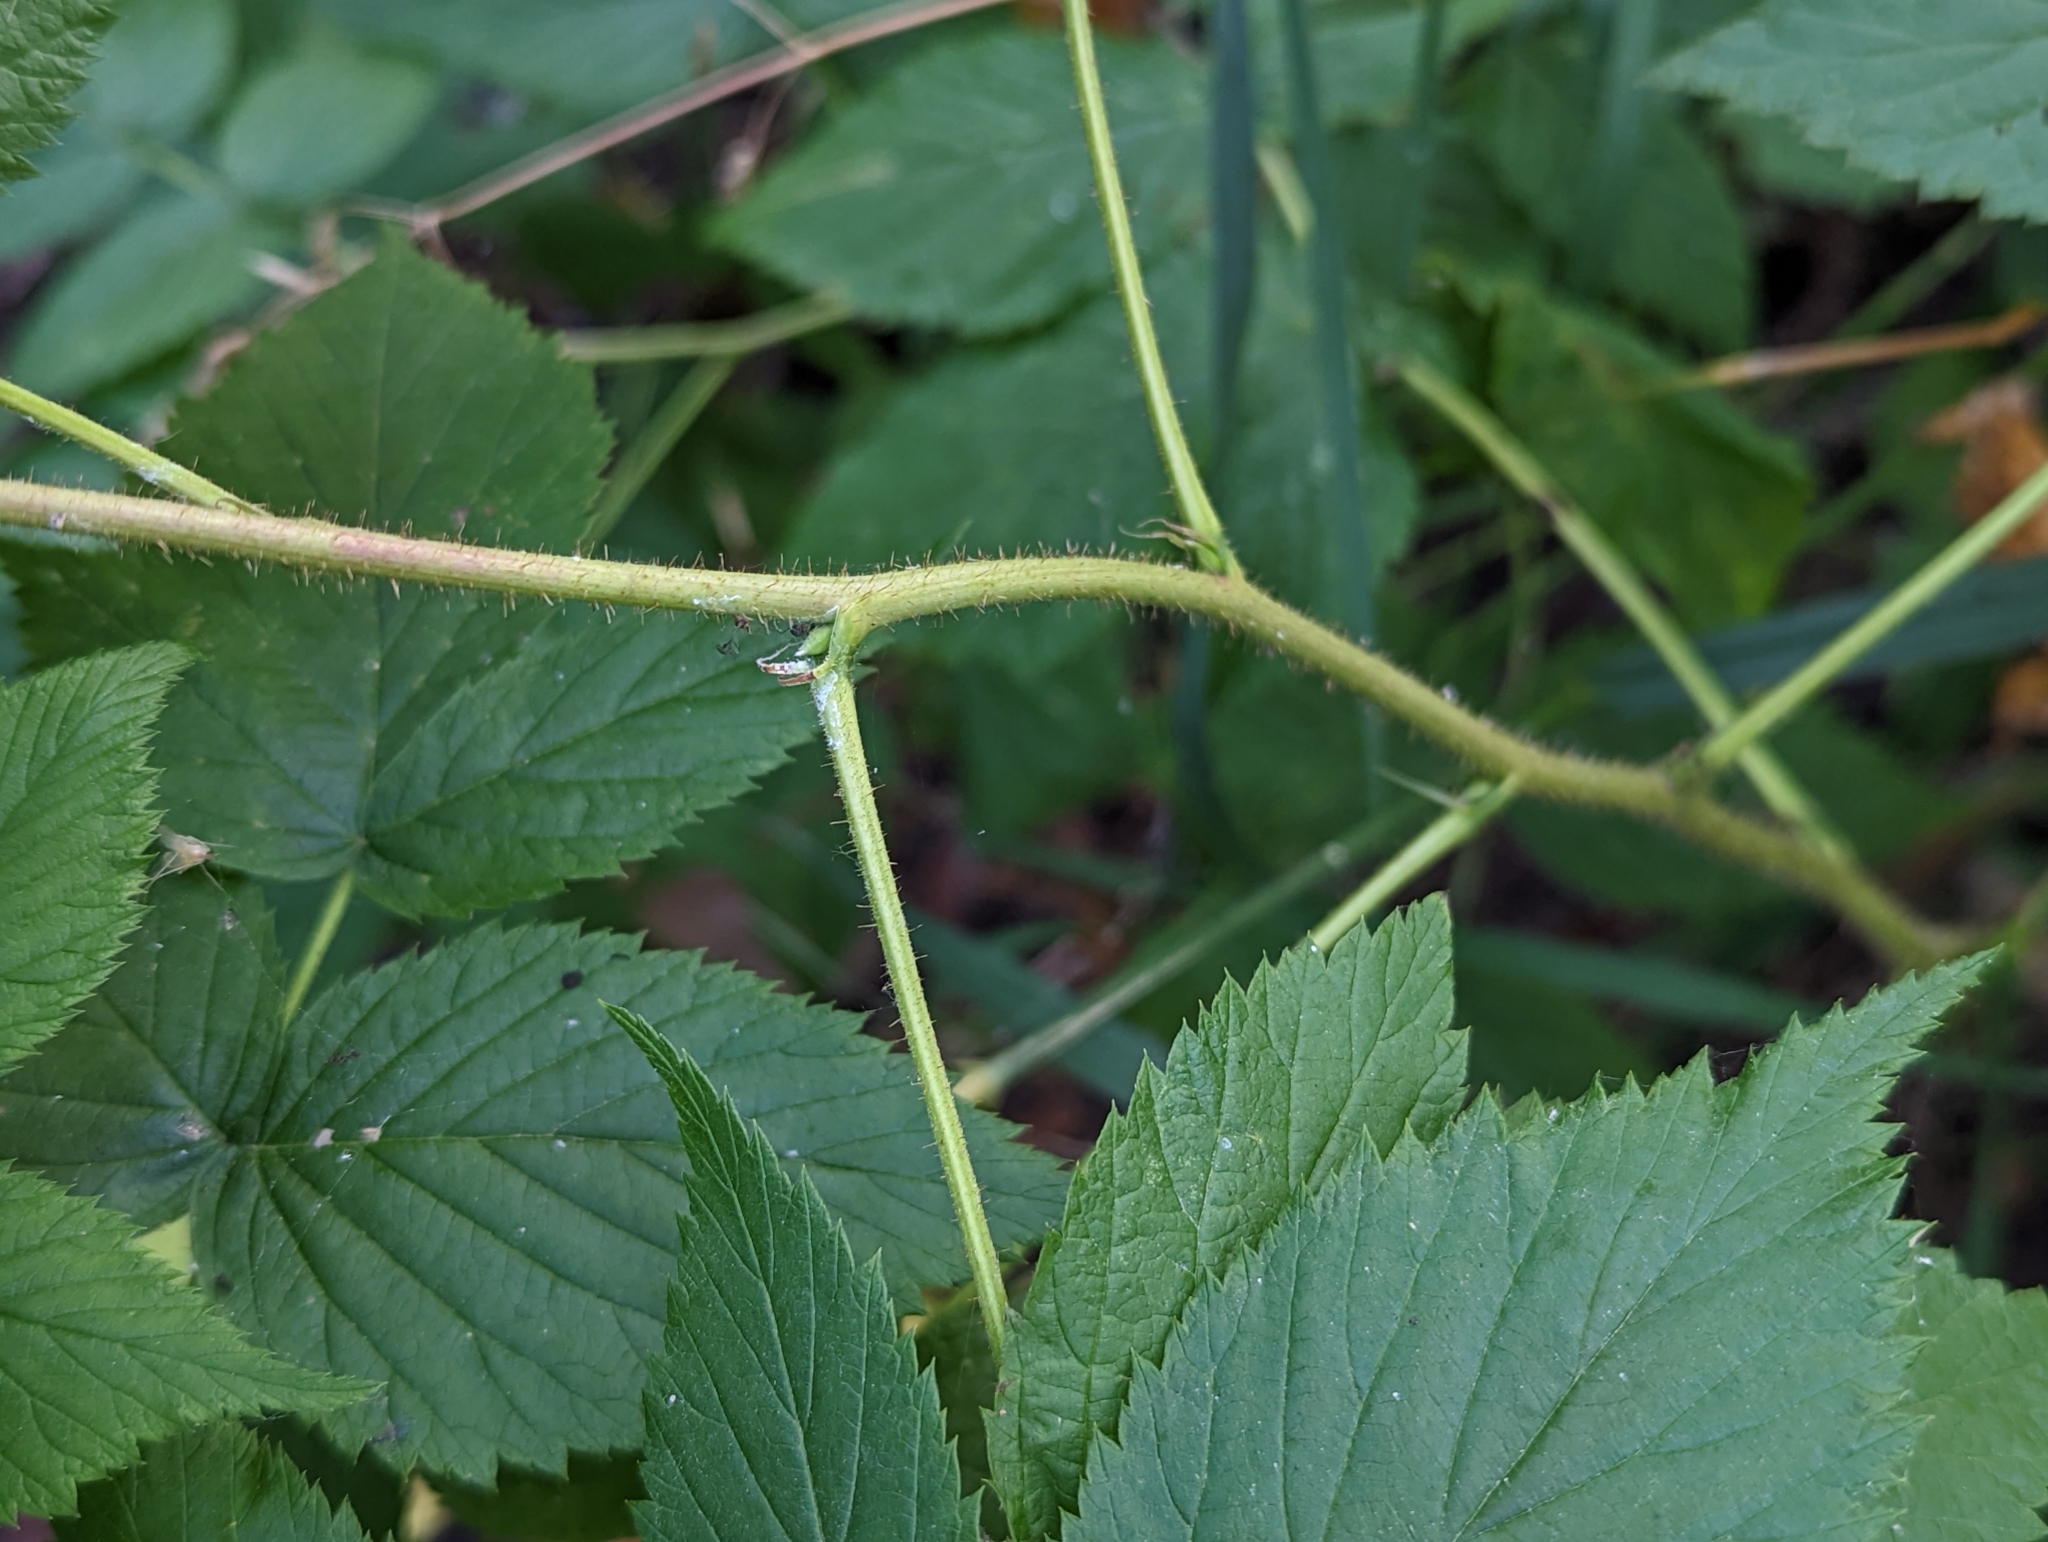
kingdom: Plantae
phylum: Tracheophyta
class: Magnoliopsida
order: Rosales
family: Rosaceae
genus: Rubus
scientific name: Rubus idaeus
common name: Raspberry
